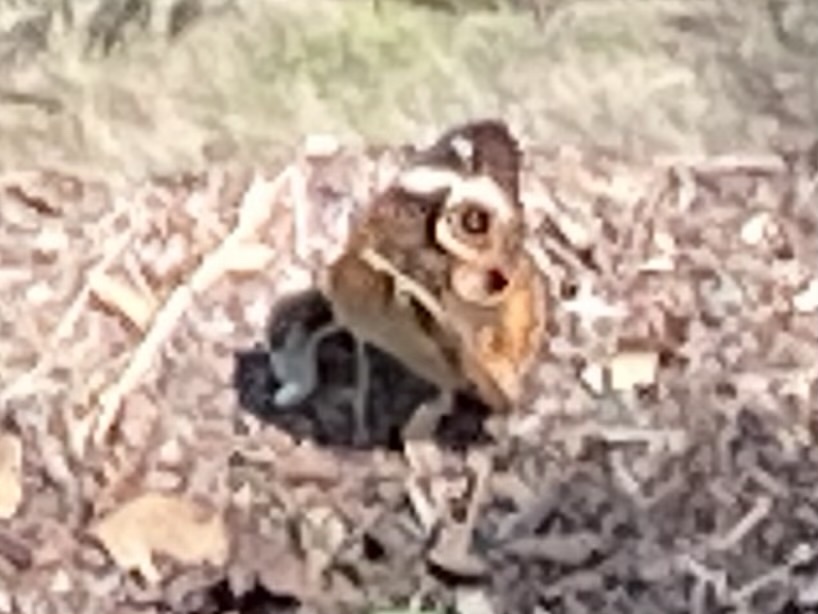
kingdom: Animalia
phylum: Arthropoda
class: Insecta
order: Lepidoptera
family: Nymphalidae
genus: Junonia
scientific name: Junonia coenia
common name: Common buckeye
